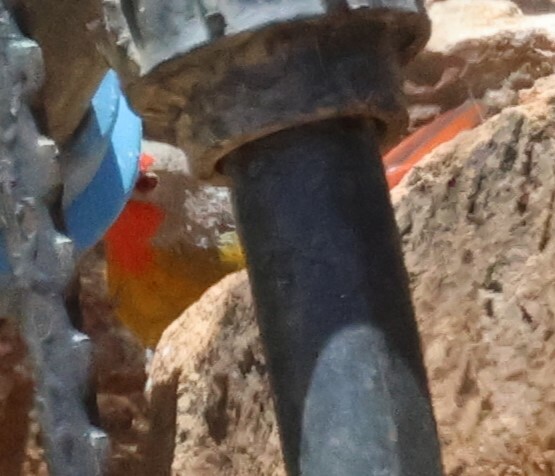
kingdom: Animalia
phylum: Chordata
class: Aves
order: Passeriformes
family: Estrildidae
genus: Pytilia
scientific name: Pytilia melba
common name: Green-winged pytilia
